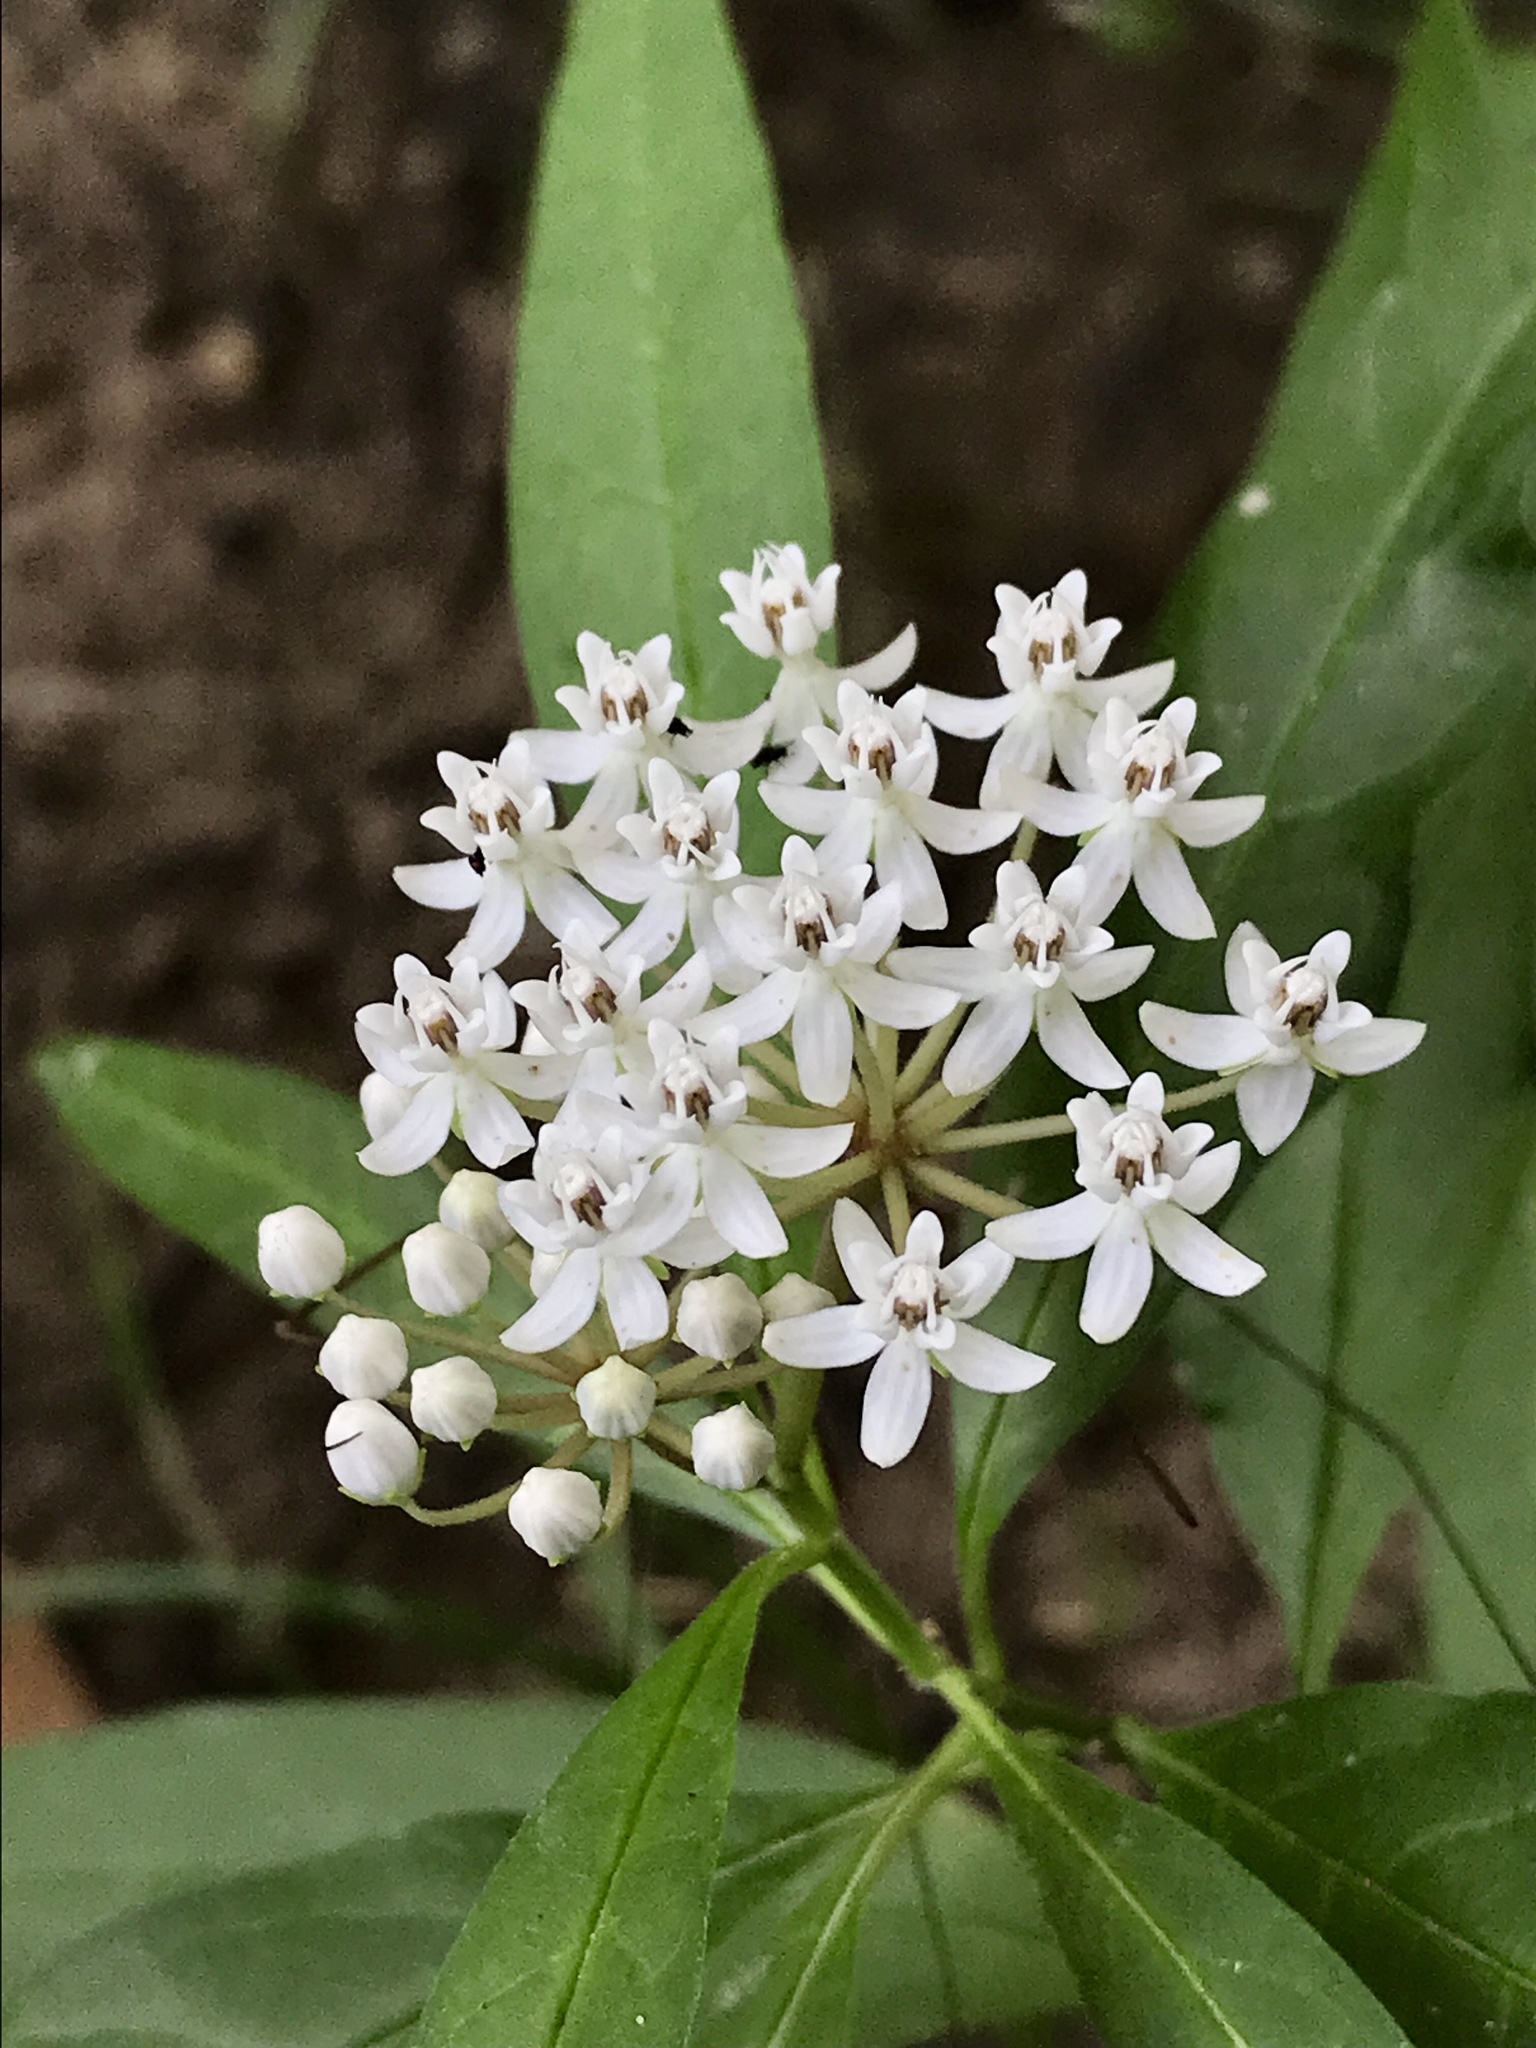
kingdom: Plantae
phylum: Tracheophyta
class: Magnoliopsida
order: Gentianales
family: Apocynaceae
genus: Asclepias
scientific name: Asclepias perennis
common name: Smooth-seed milkweed
